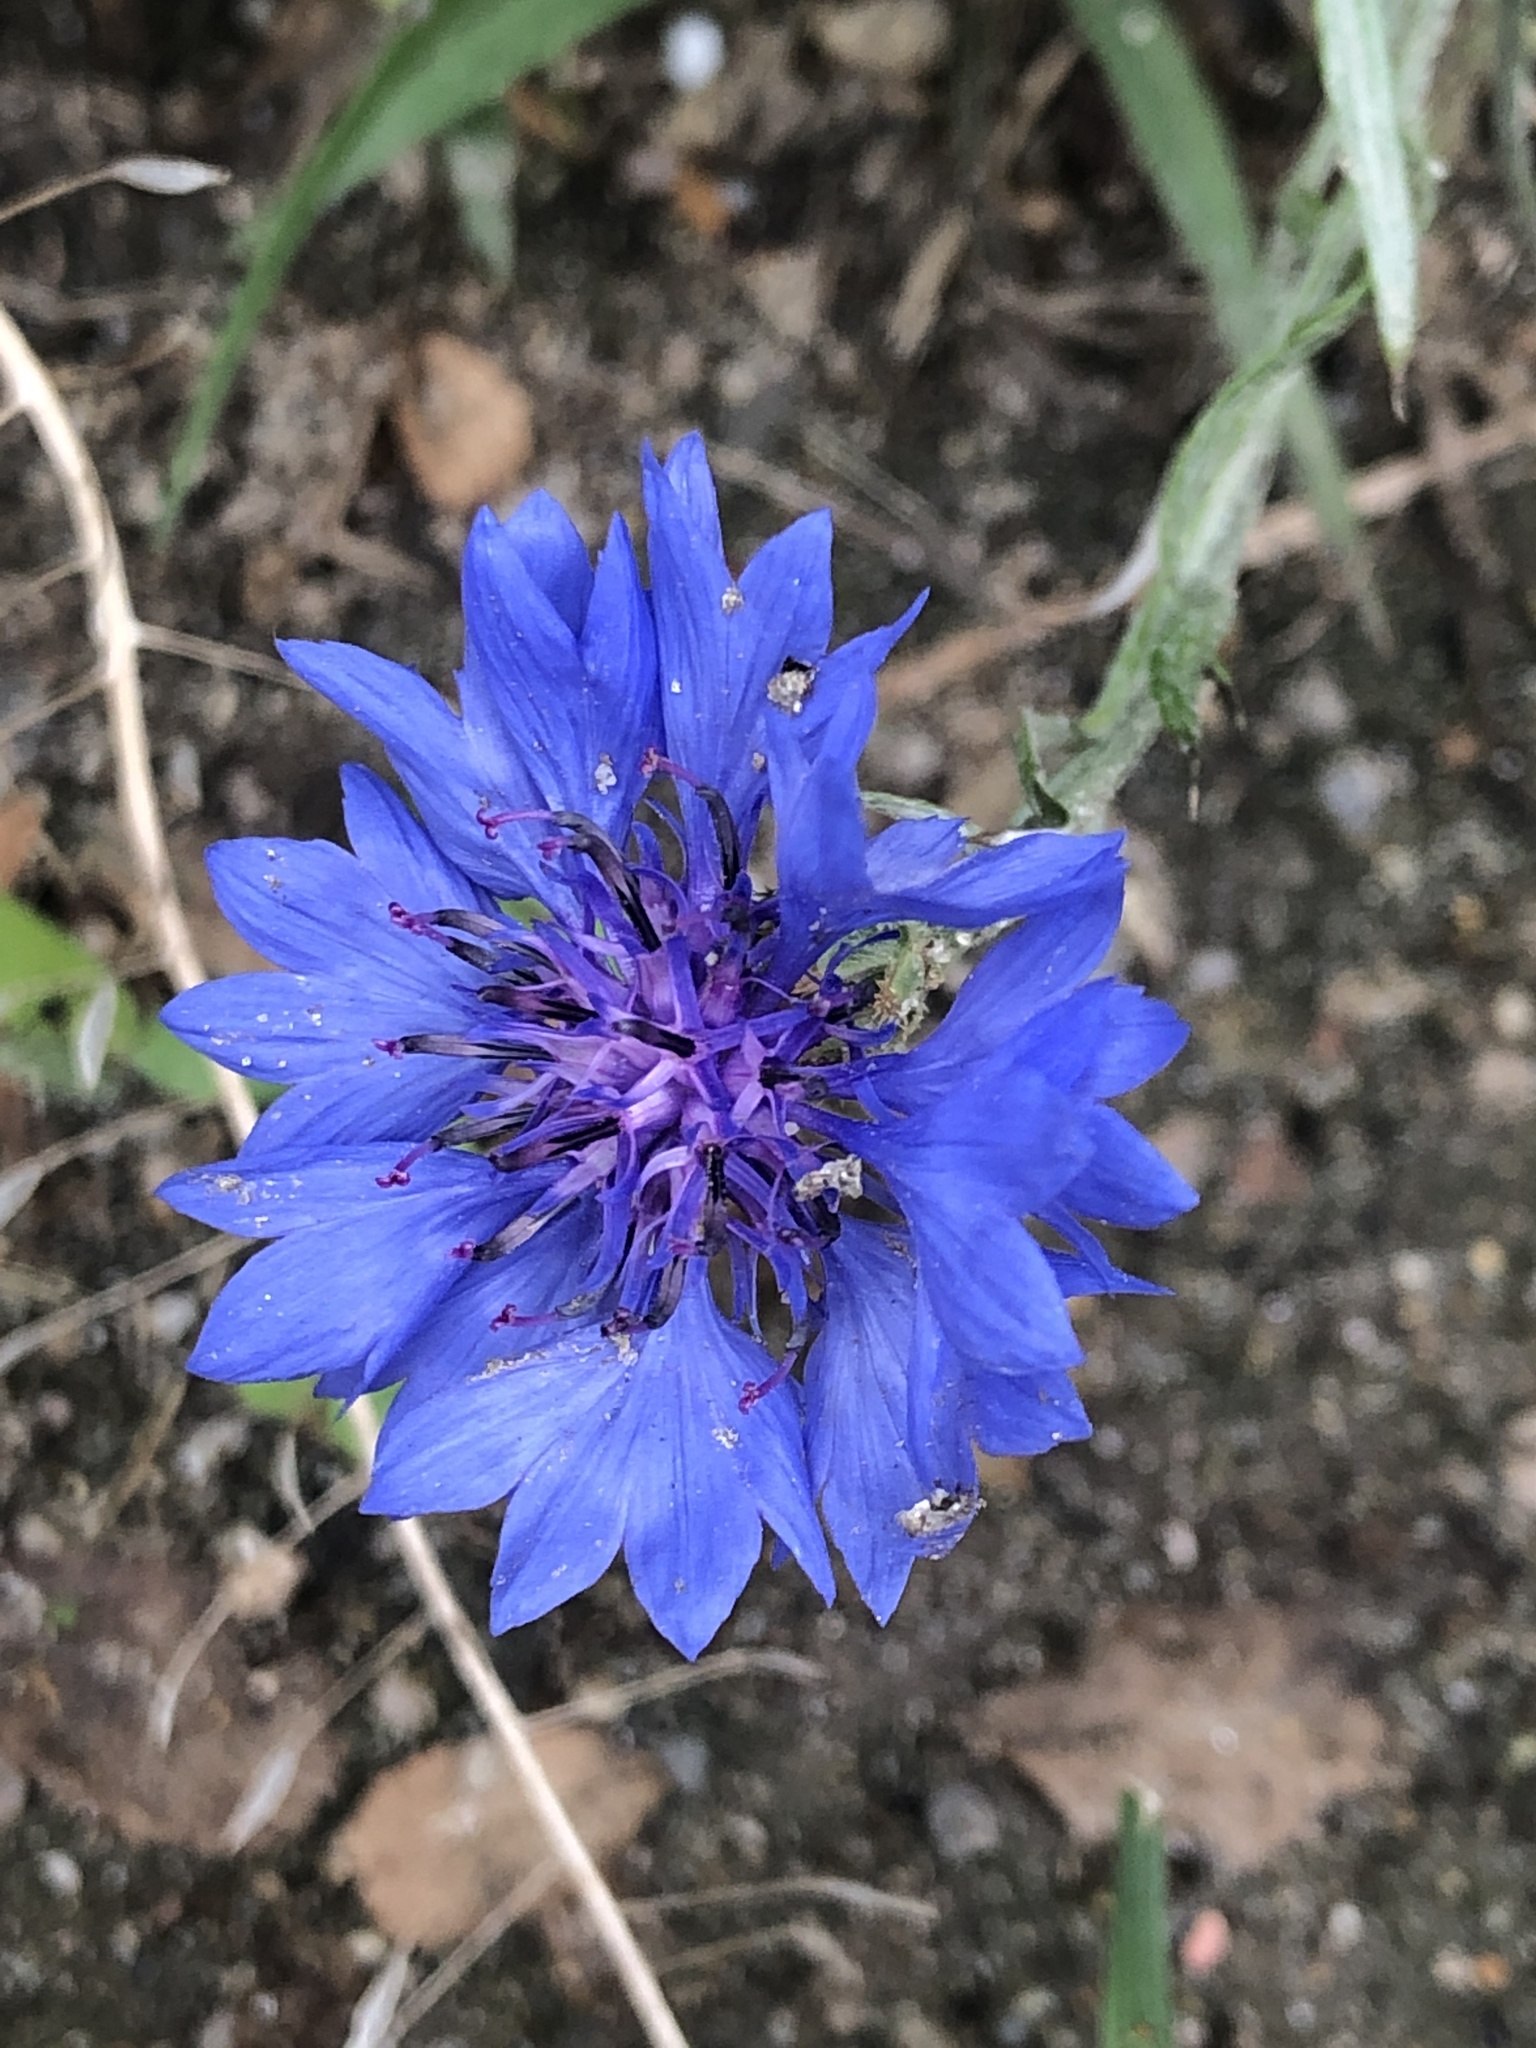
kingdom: Plantae
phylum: Tracheophyta
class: Magnoliopsida
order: Asterales
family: Asteraceae
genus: Centaurea
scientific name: Centaurea cyanus
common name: Cornflower
